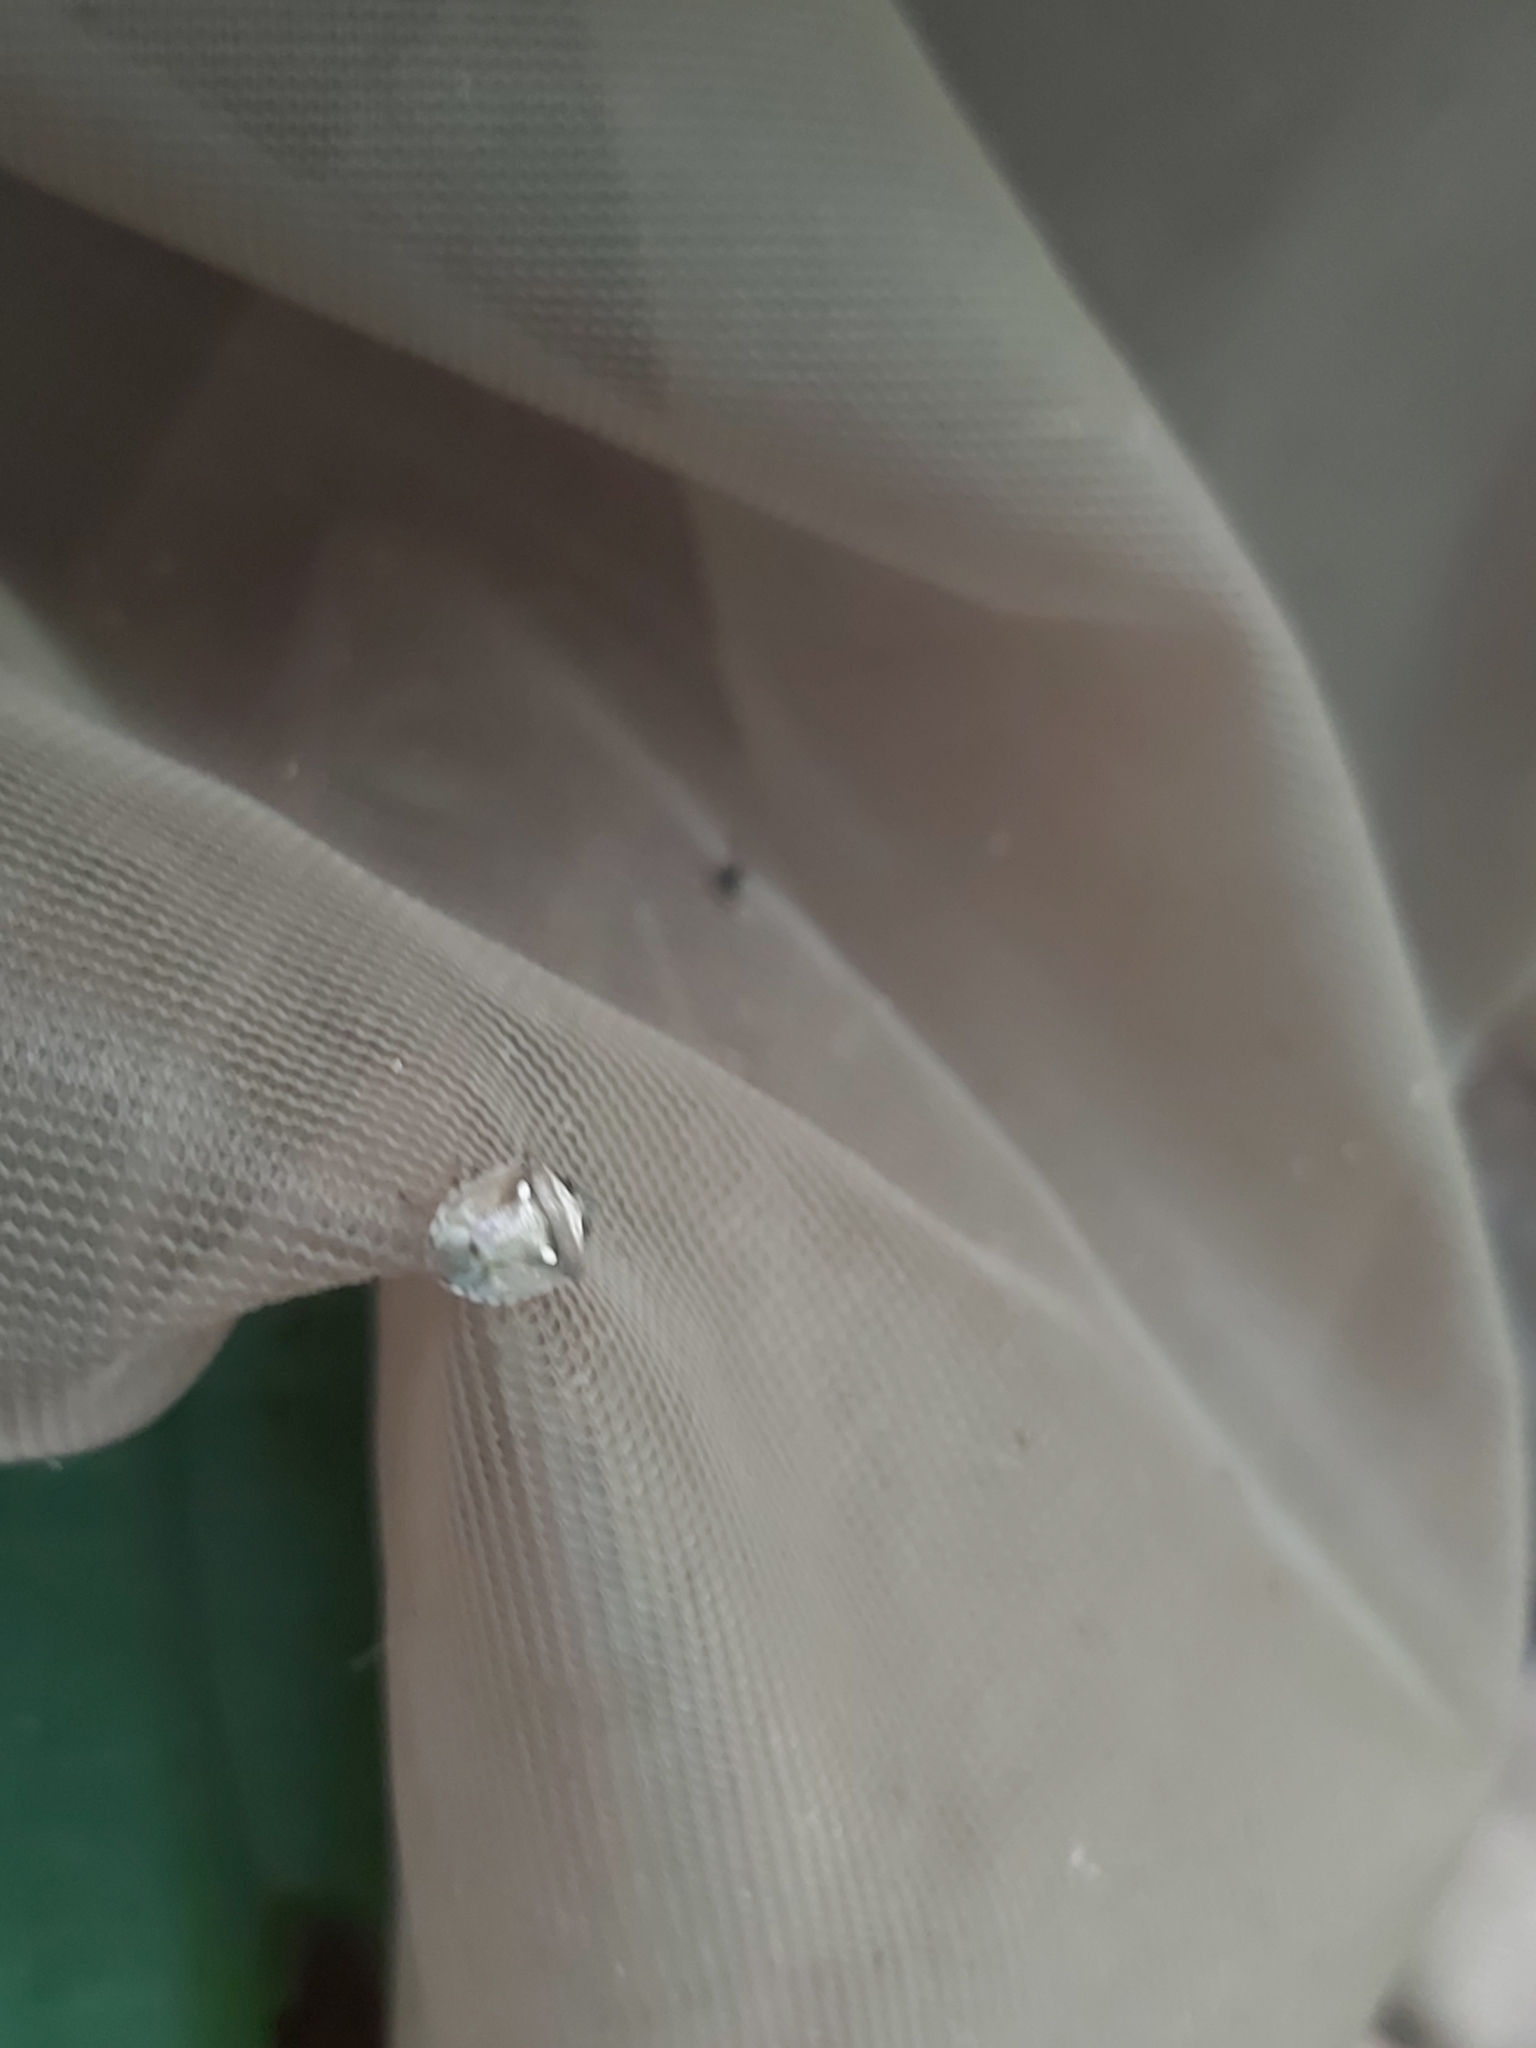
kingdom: Animalia
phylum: Arthropoda
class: Insecta
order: Hemiptera
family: Pentatomidae
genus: Eysarcoris
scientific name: Eysarcoris aeneus
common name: New forest shieldbug
